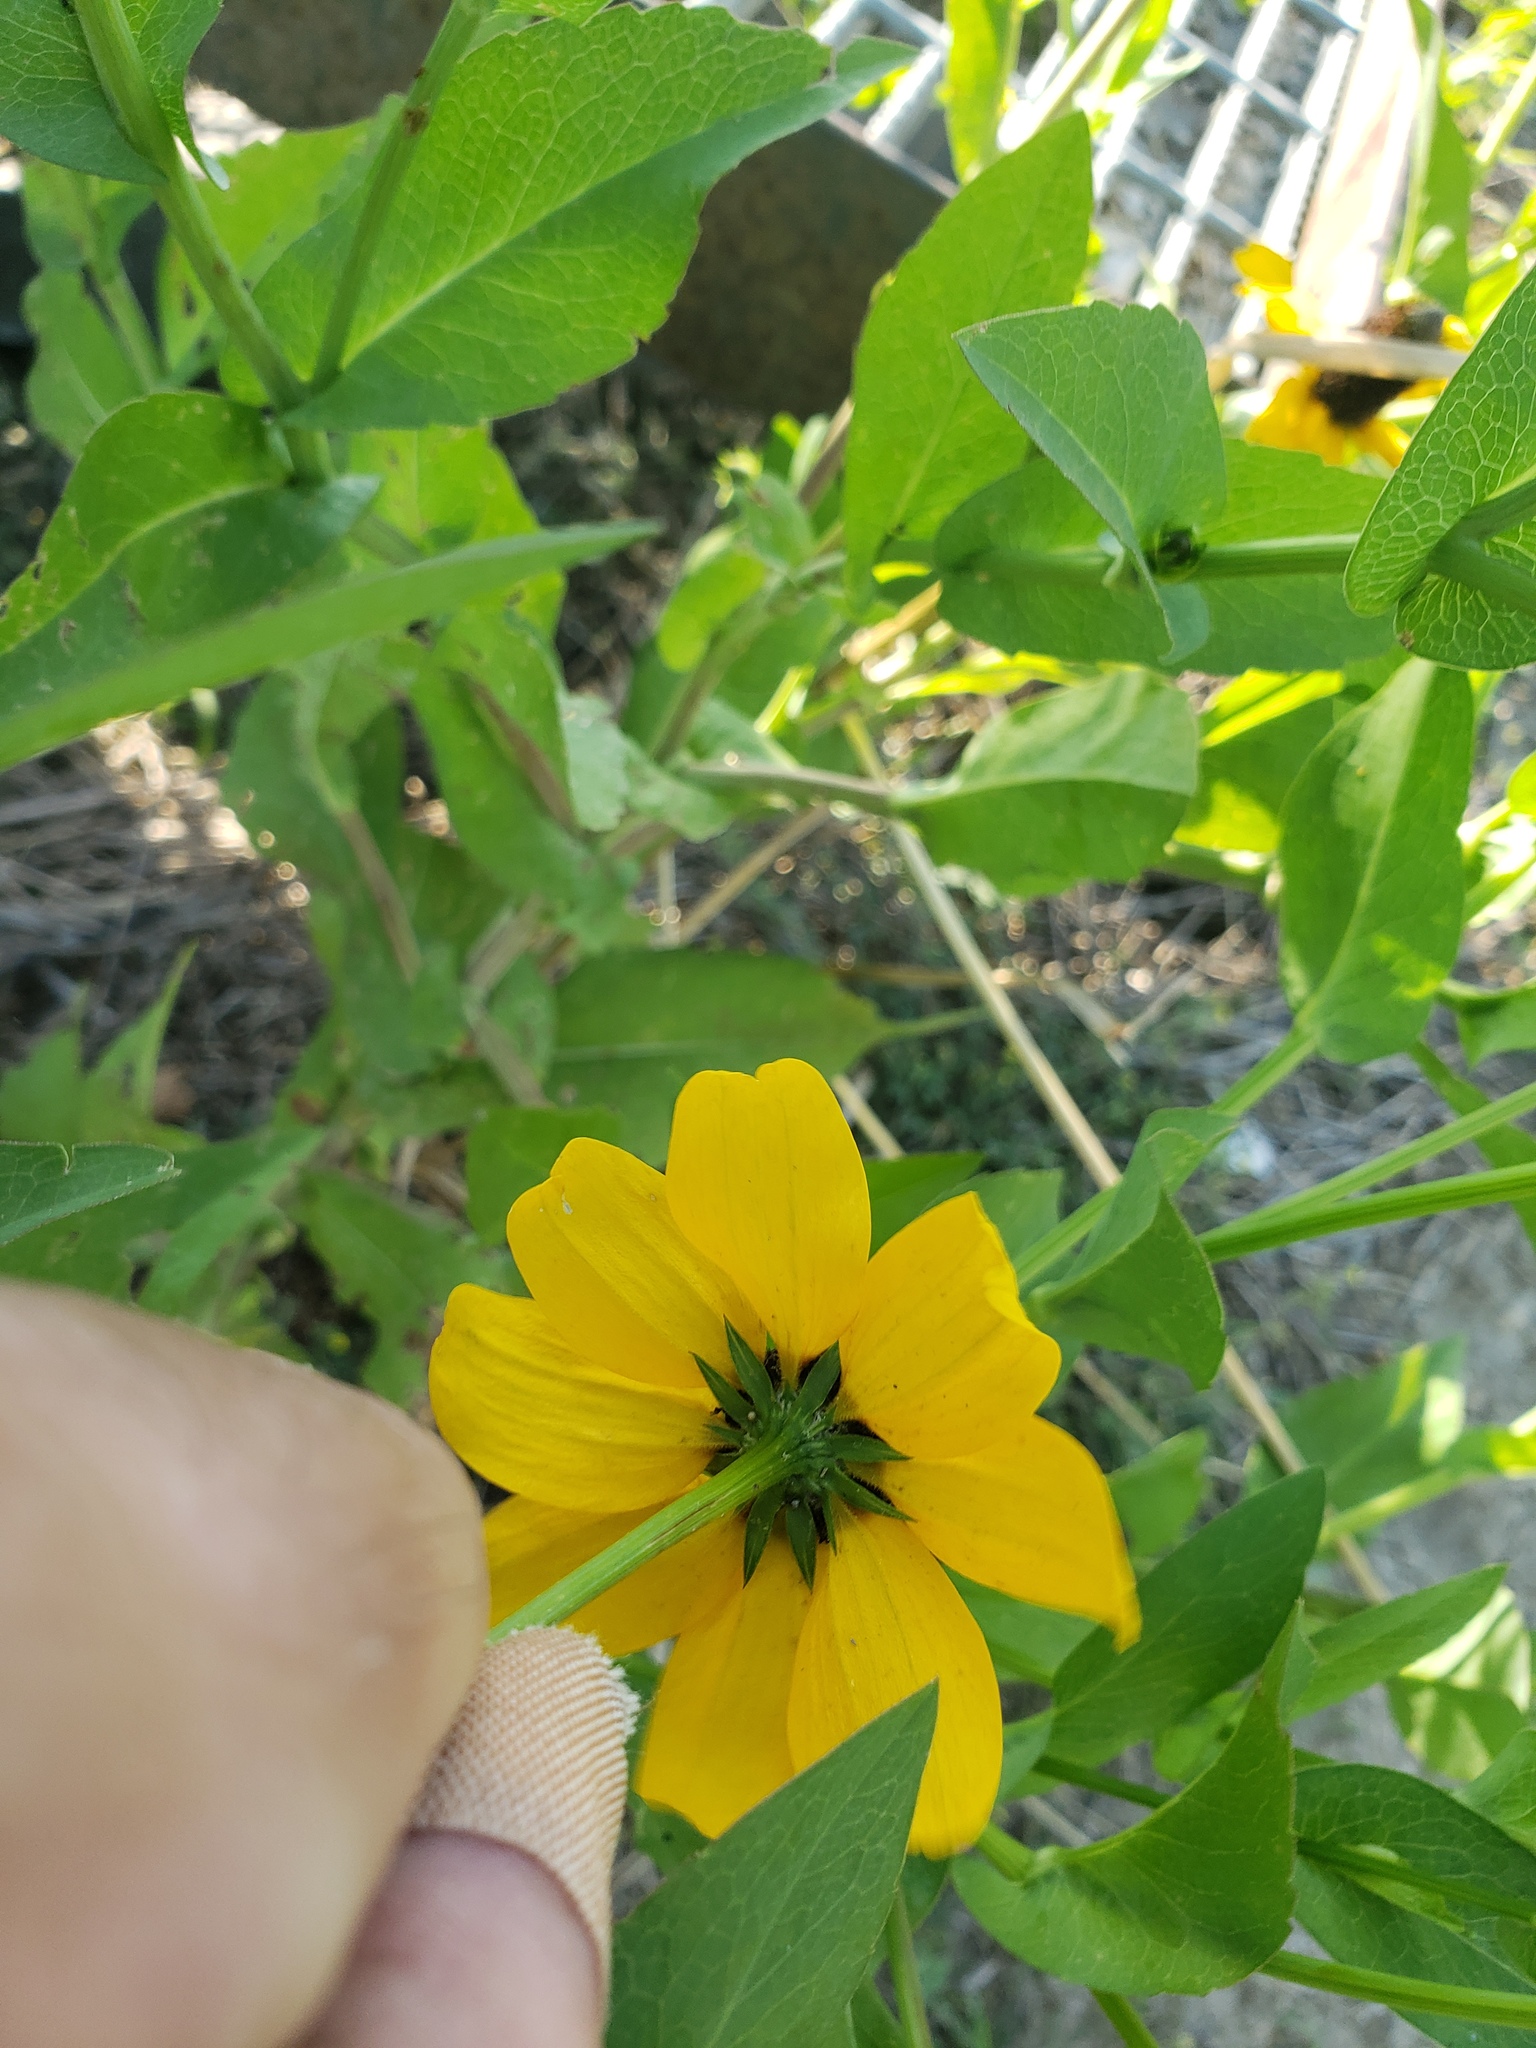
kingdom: Plantae
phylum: Tracheophyta
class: Magnoliopsida
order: Asterales
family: Asteraceae
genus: Rudbeckia
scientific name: Rudbeckia amplexicaulis
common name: Clasping-leaf coneflower
